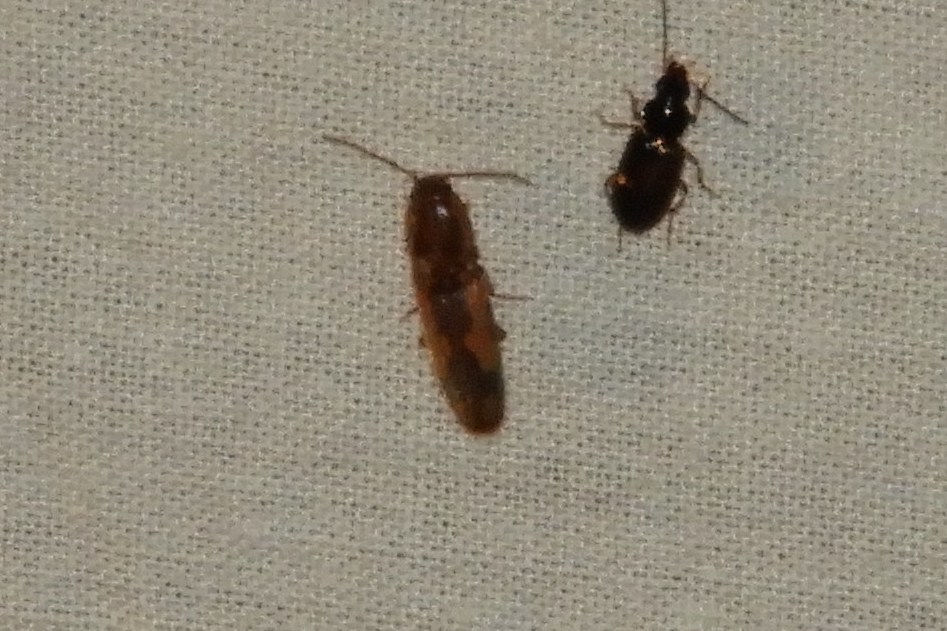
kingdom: Animalia
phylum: Arthropoda
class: Insecta
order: Coleoptera
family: Elateridae
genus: Monocrepidius
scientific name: Monocrepidius
